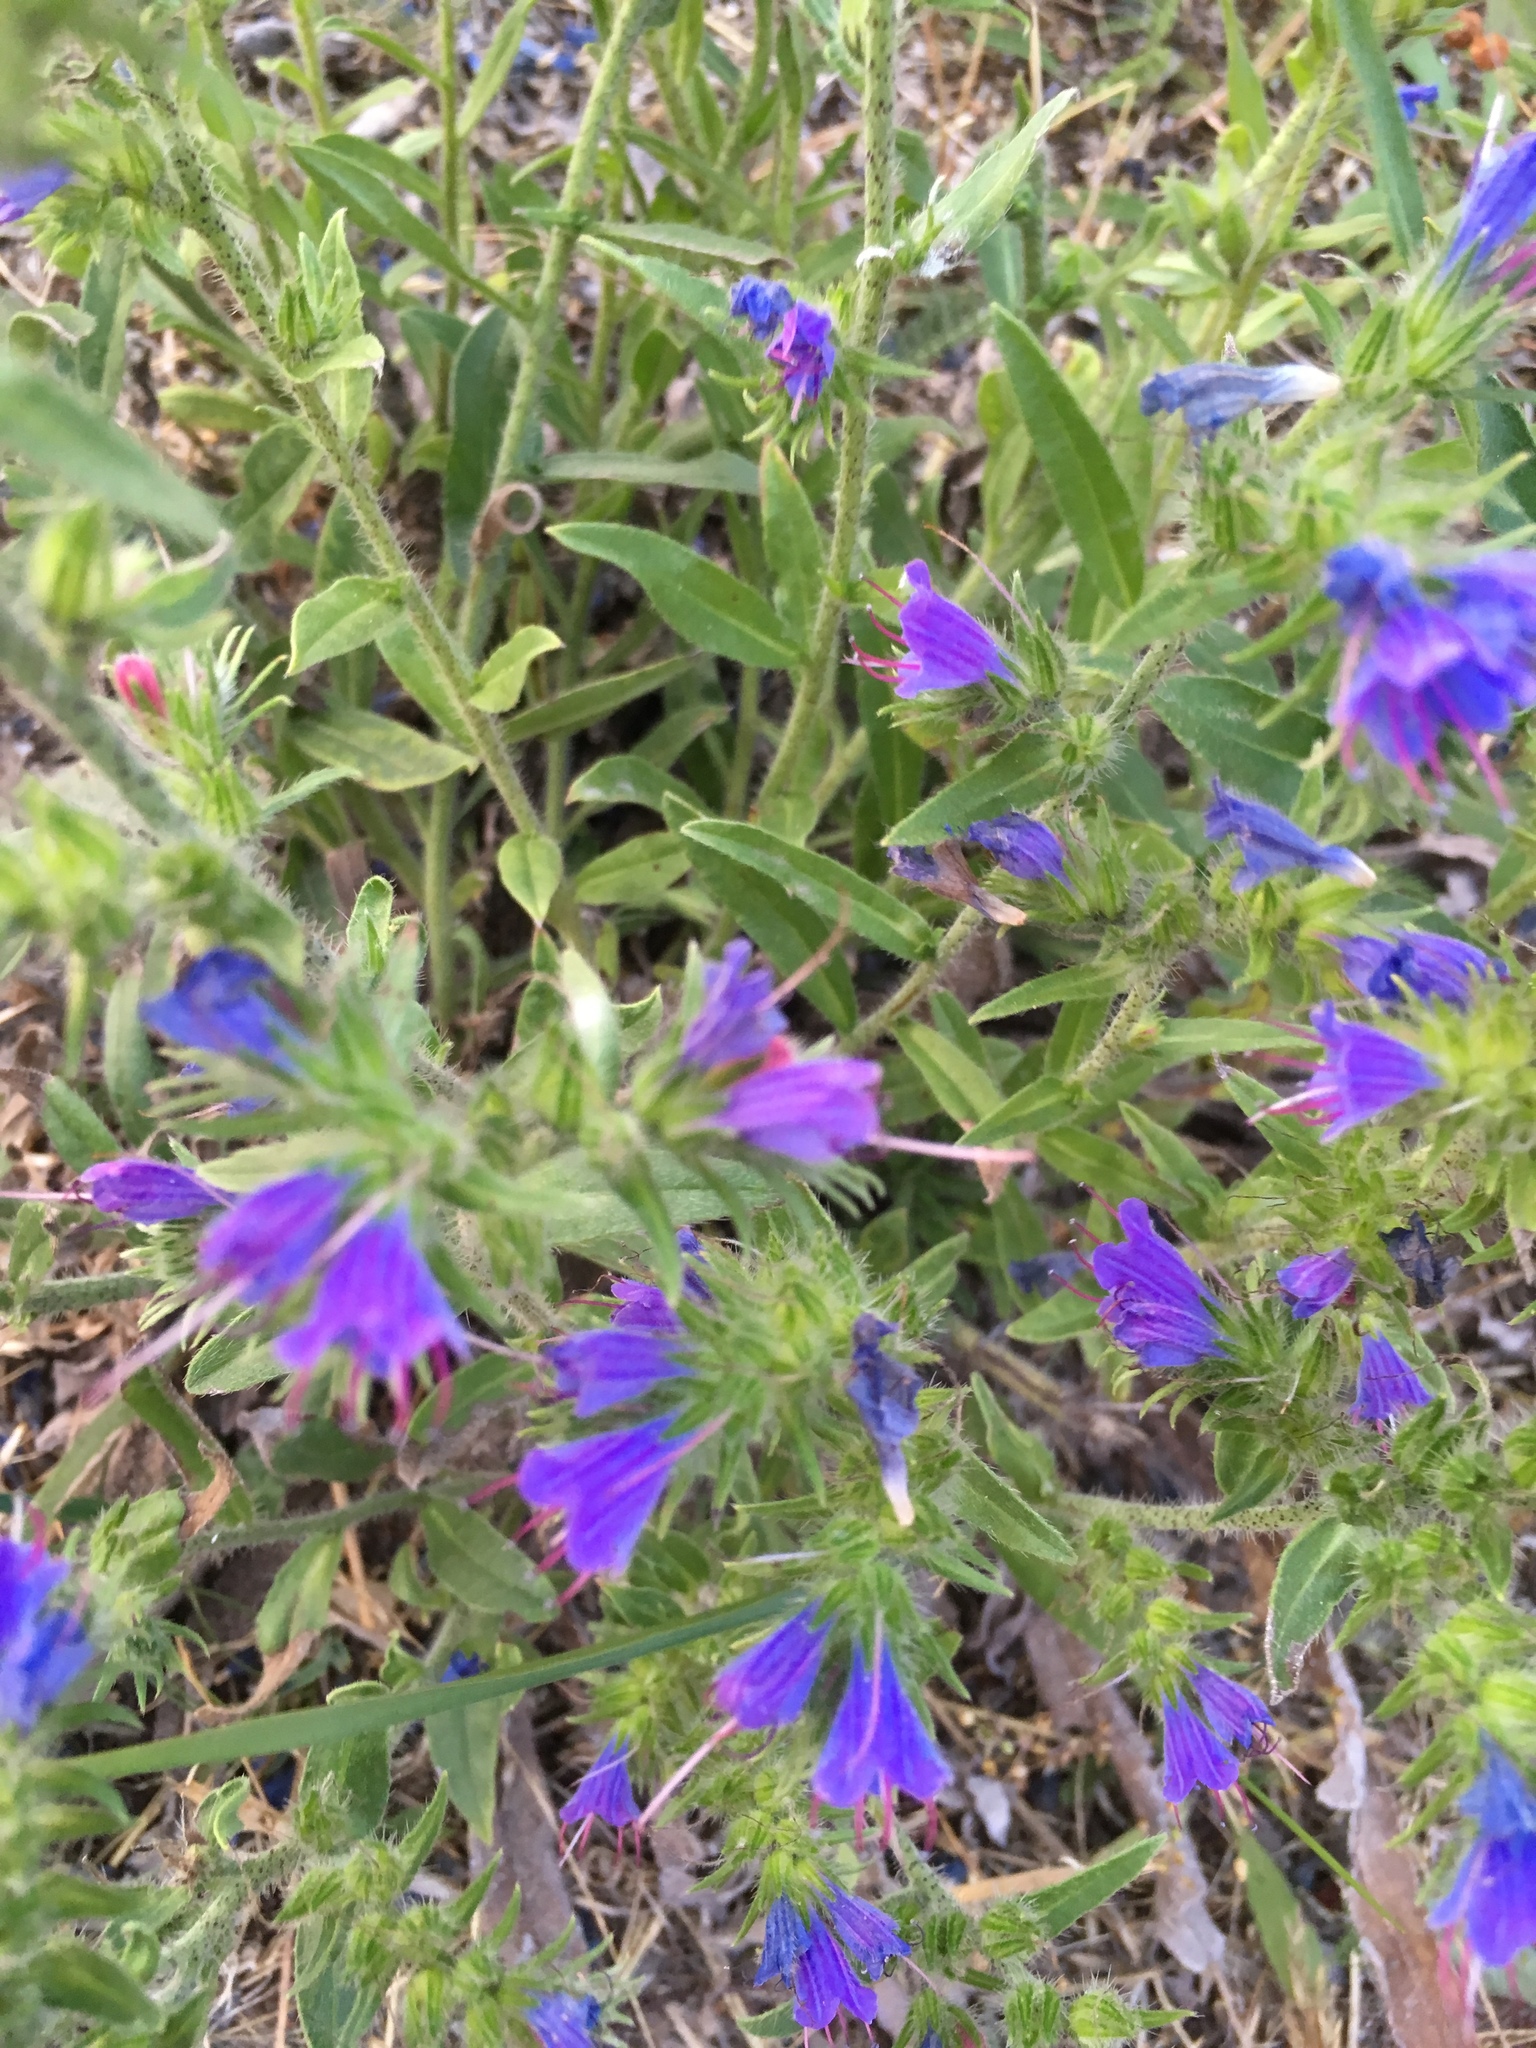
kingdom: Plantae
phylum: Tracheophyta
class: Magnoliopsida
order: Boraginales
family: Boraginaceae
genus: Echium
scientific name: Echium vulgare
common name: Common viper's bugloss
